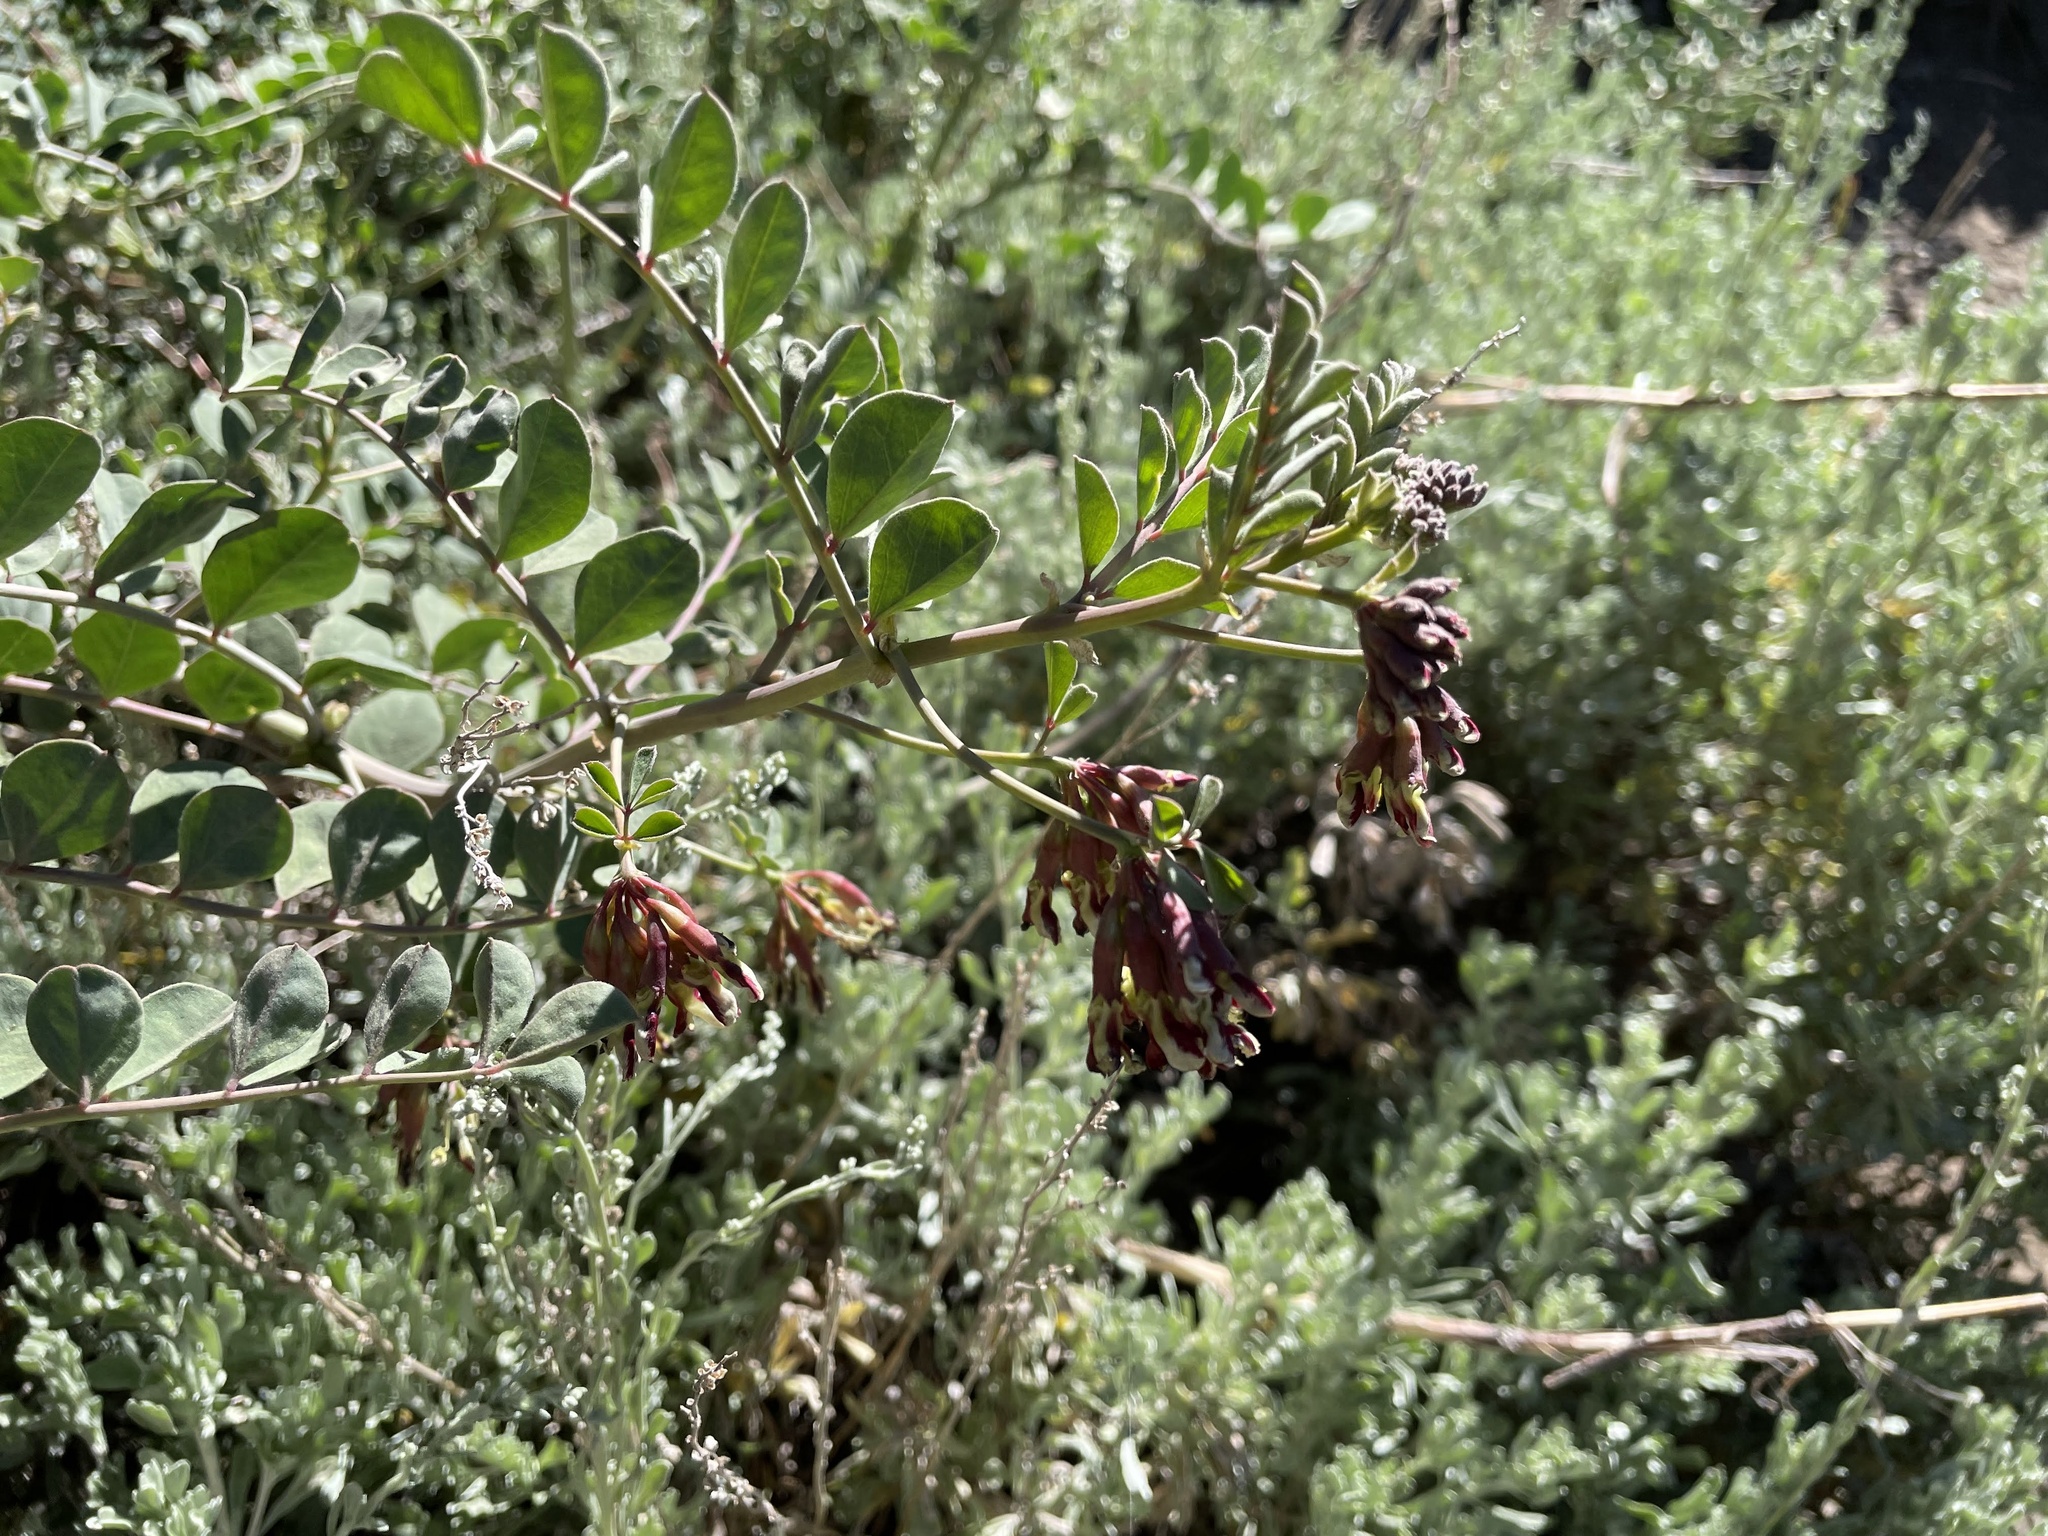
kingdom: Plantae
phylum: Tracheophyta
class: Magnoliopsida
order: Fabales
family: Fabaceae
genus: Hosackia
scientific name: Hosackia crassifolia
